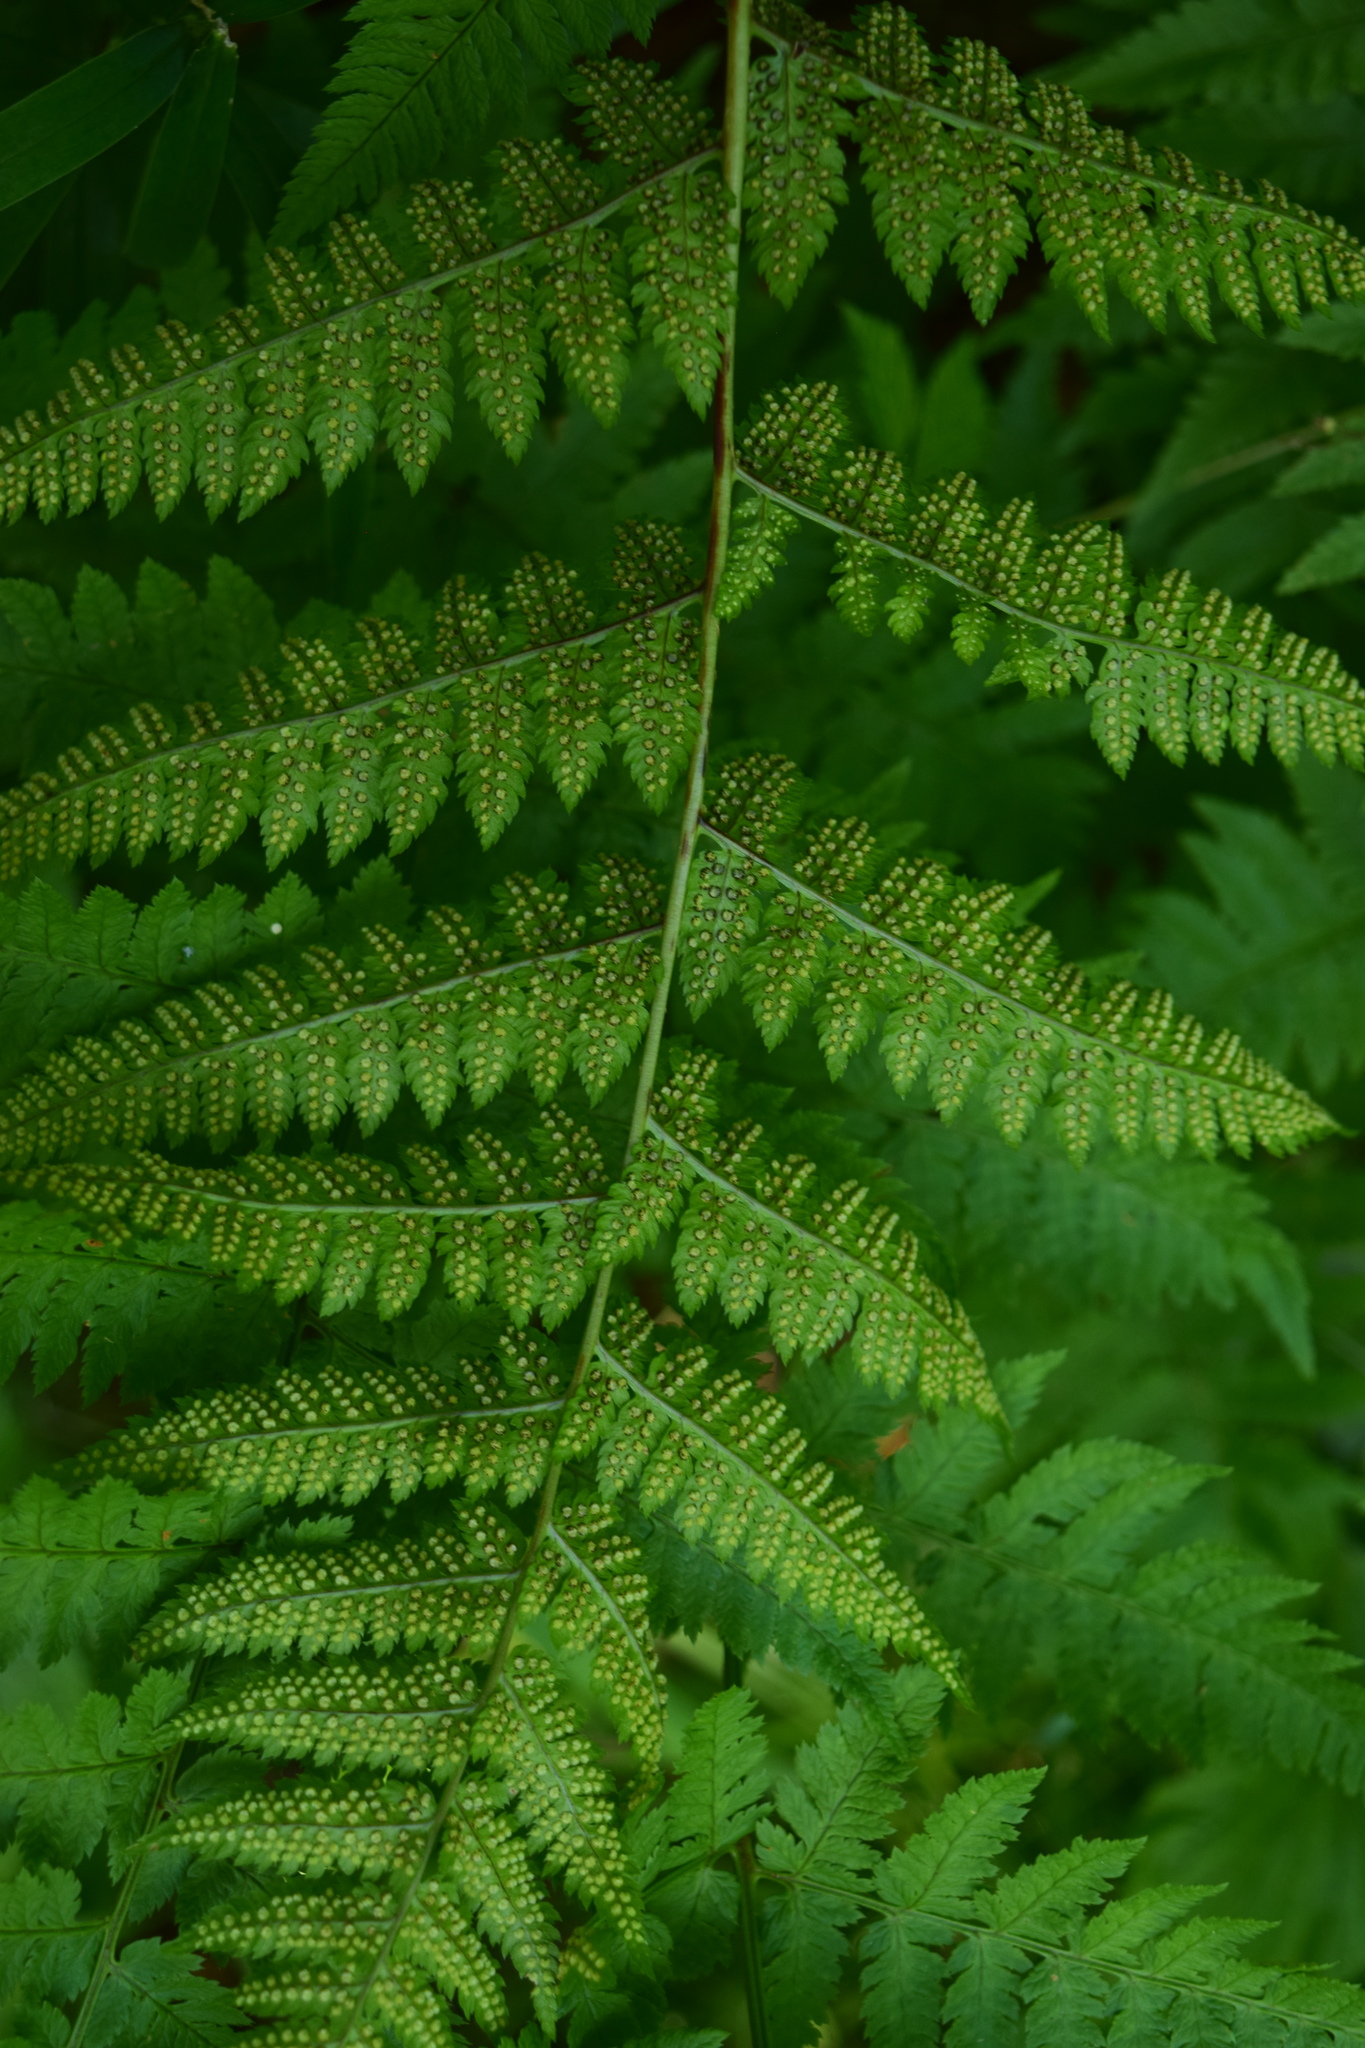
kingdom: Plantae
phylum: Tracheophyta
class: Polypodiopsida
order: Polypodiales
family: Dryopteridaceae
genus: Dryopteris
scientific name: Dryopteris carthusiana
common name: Narrow buckler-fern
